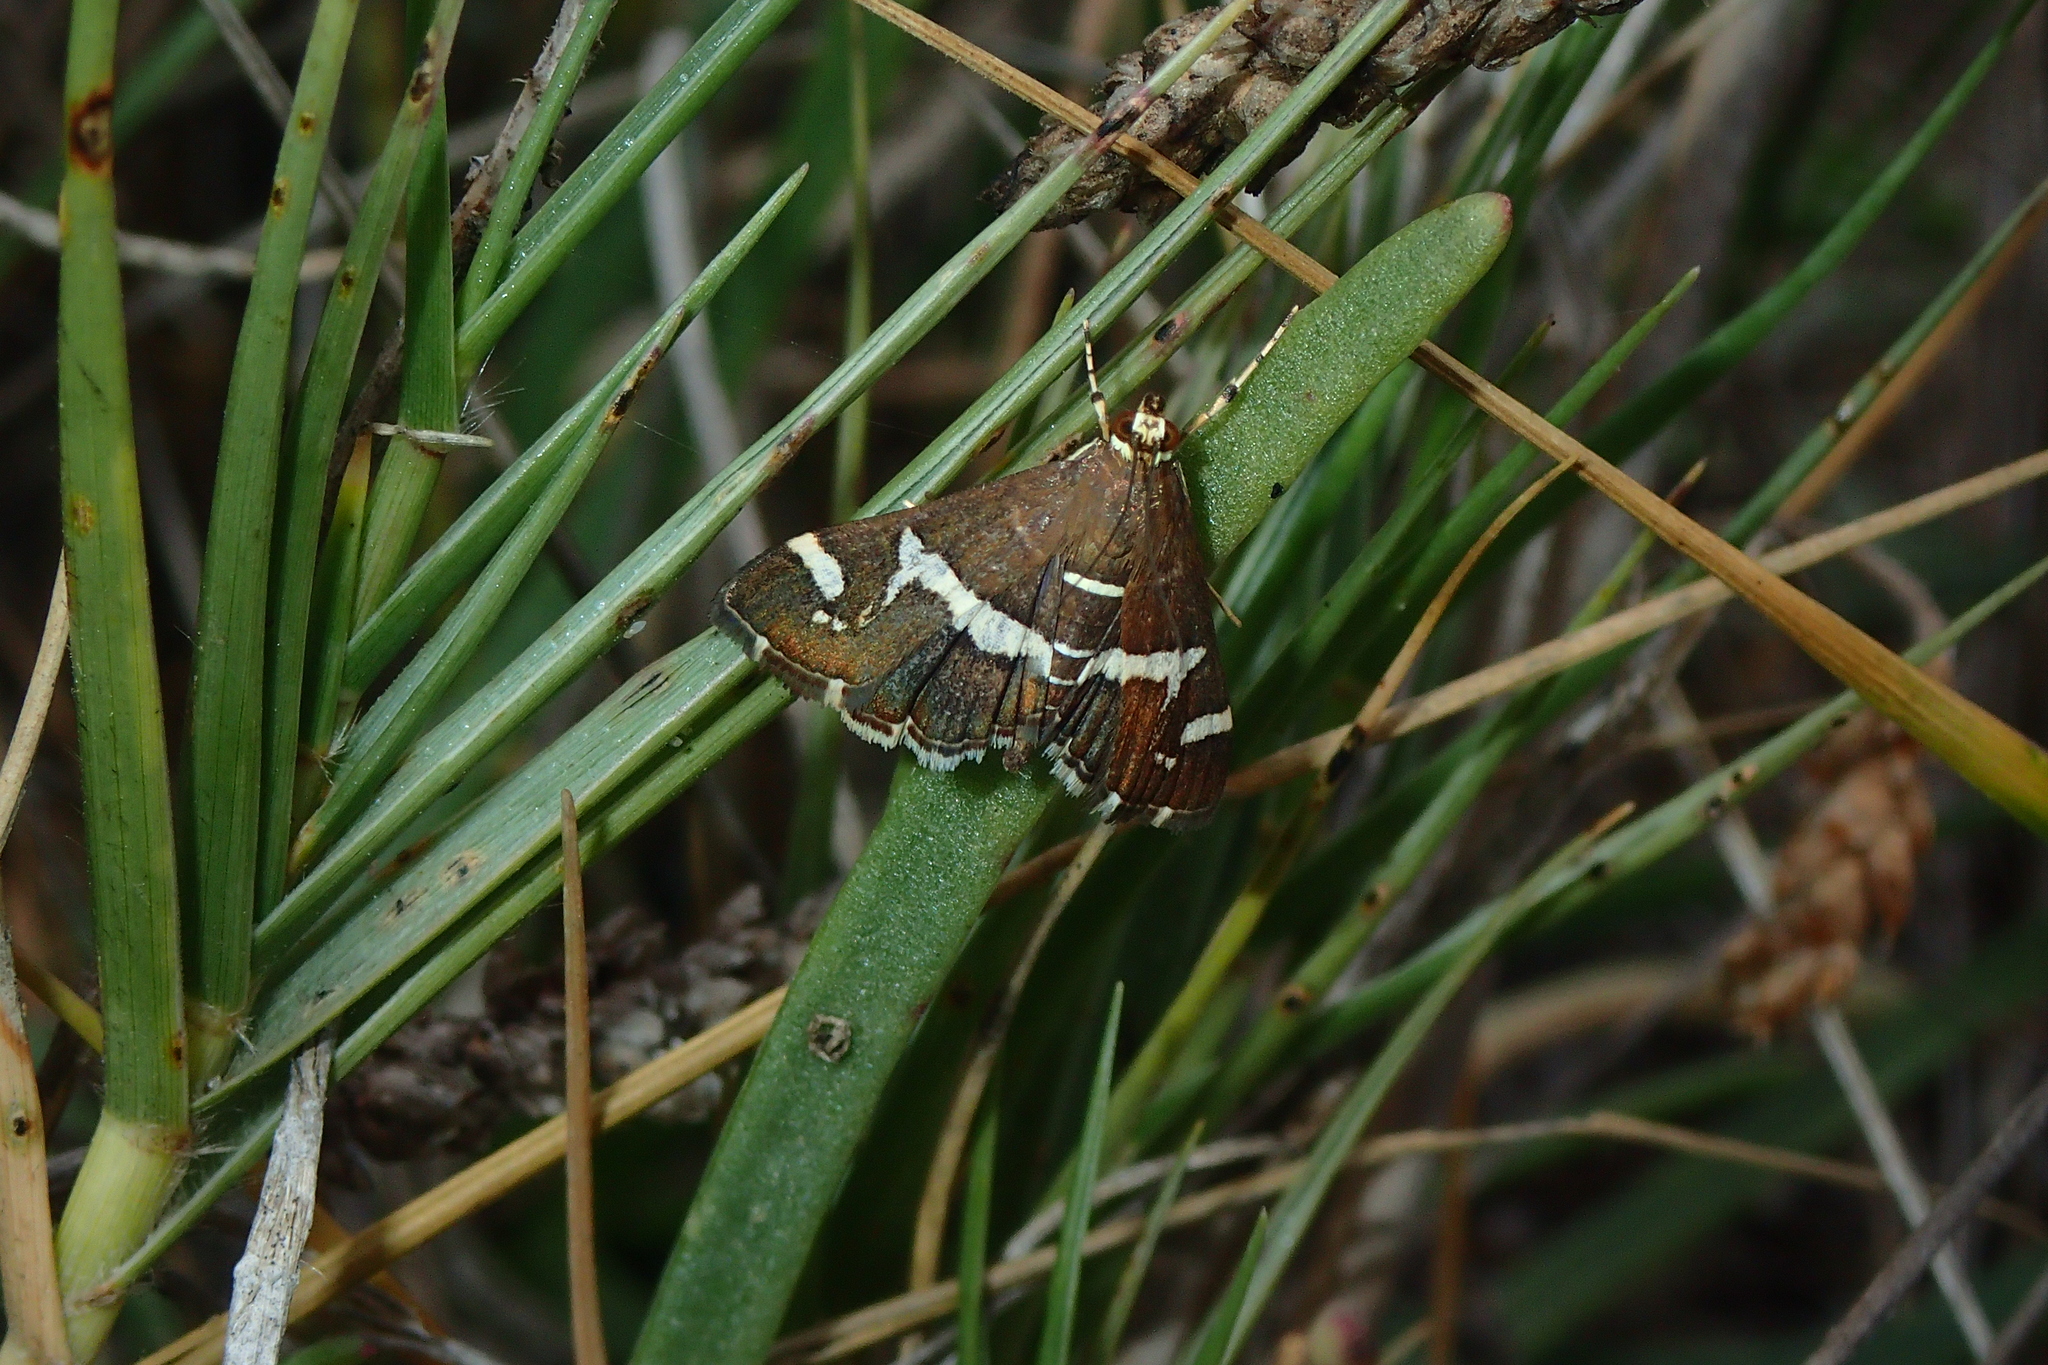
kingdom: Animalia
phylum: Arthropoda
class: Insecta
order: Lepidoptera
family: Crambidae
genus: Spoladea
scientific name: Spoladea recurvalis
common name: Beet webworm moth
